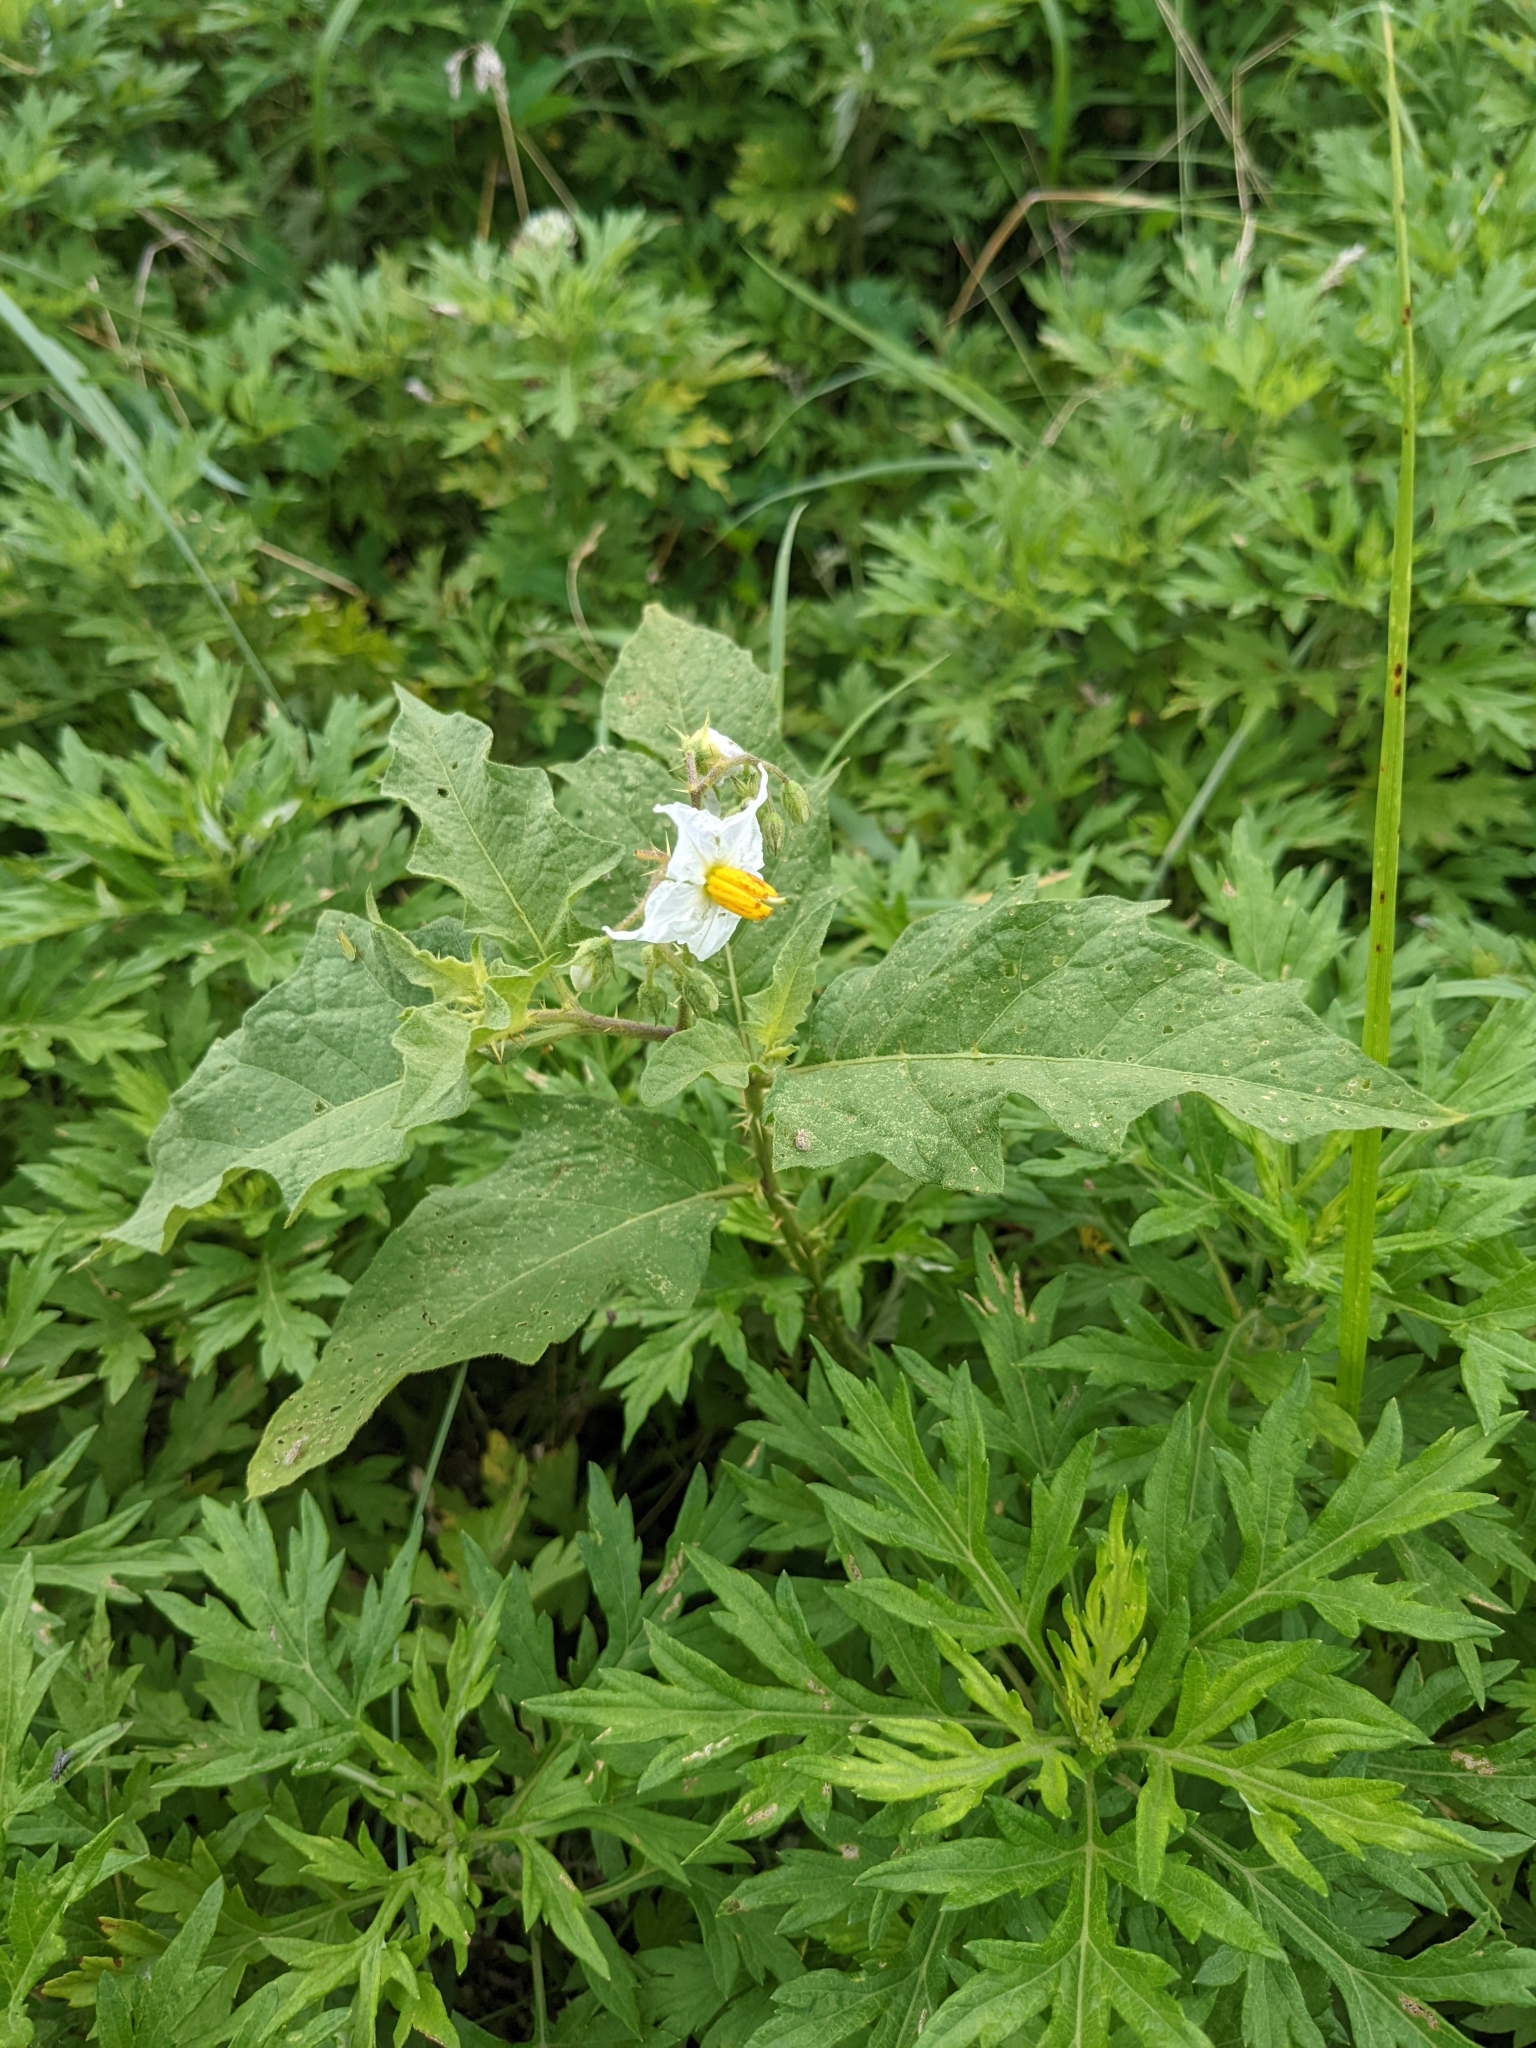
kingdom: Plantae
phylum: Tracheophyta
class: Magnoliopsida
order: Solanales
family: Solanaceae
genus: Solanum
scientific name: Solanum carolinense
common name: Horse-nettle
